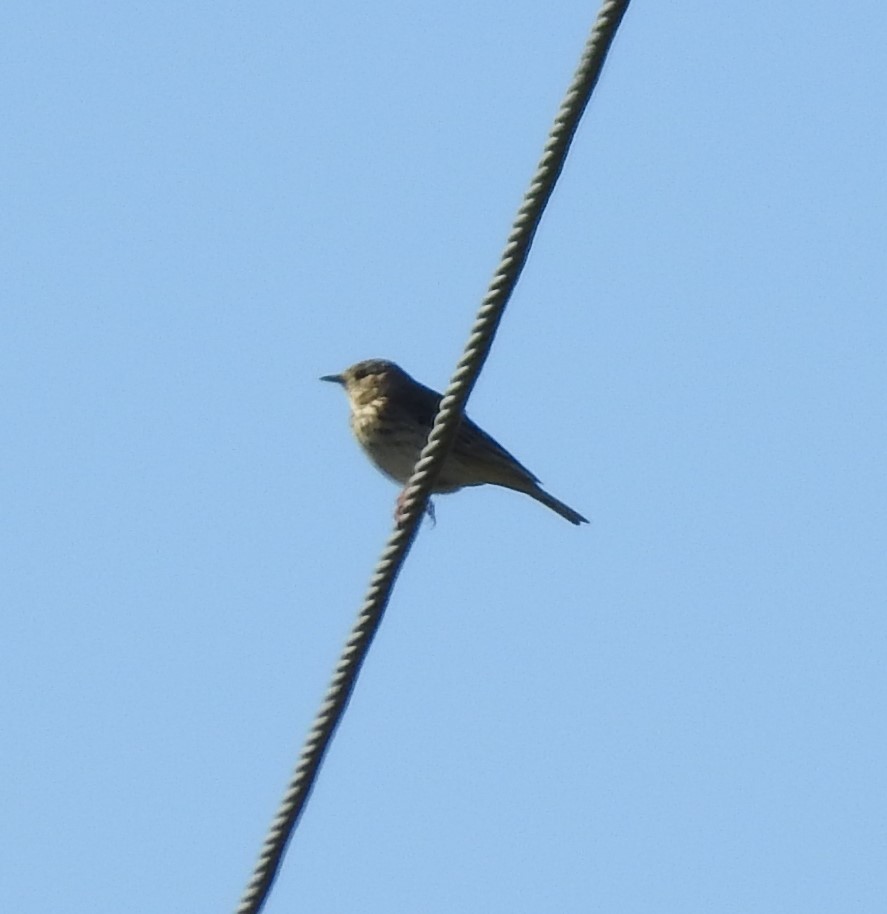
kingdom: Animalia
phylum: Chordata
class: Aves
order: Passeriformes
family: Motacillidae
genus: Anthus
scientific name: Anthus trivialis
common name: Tree pipit
